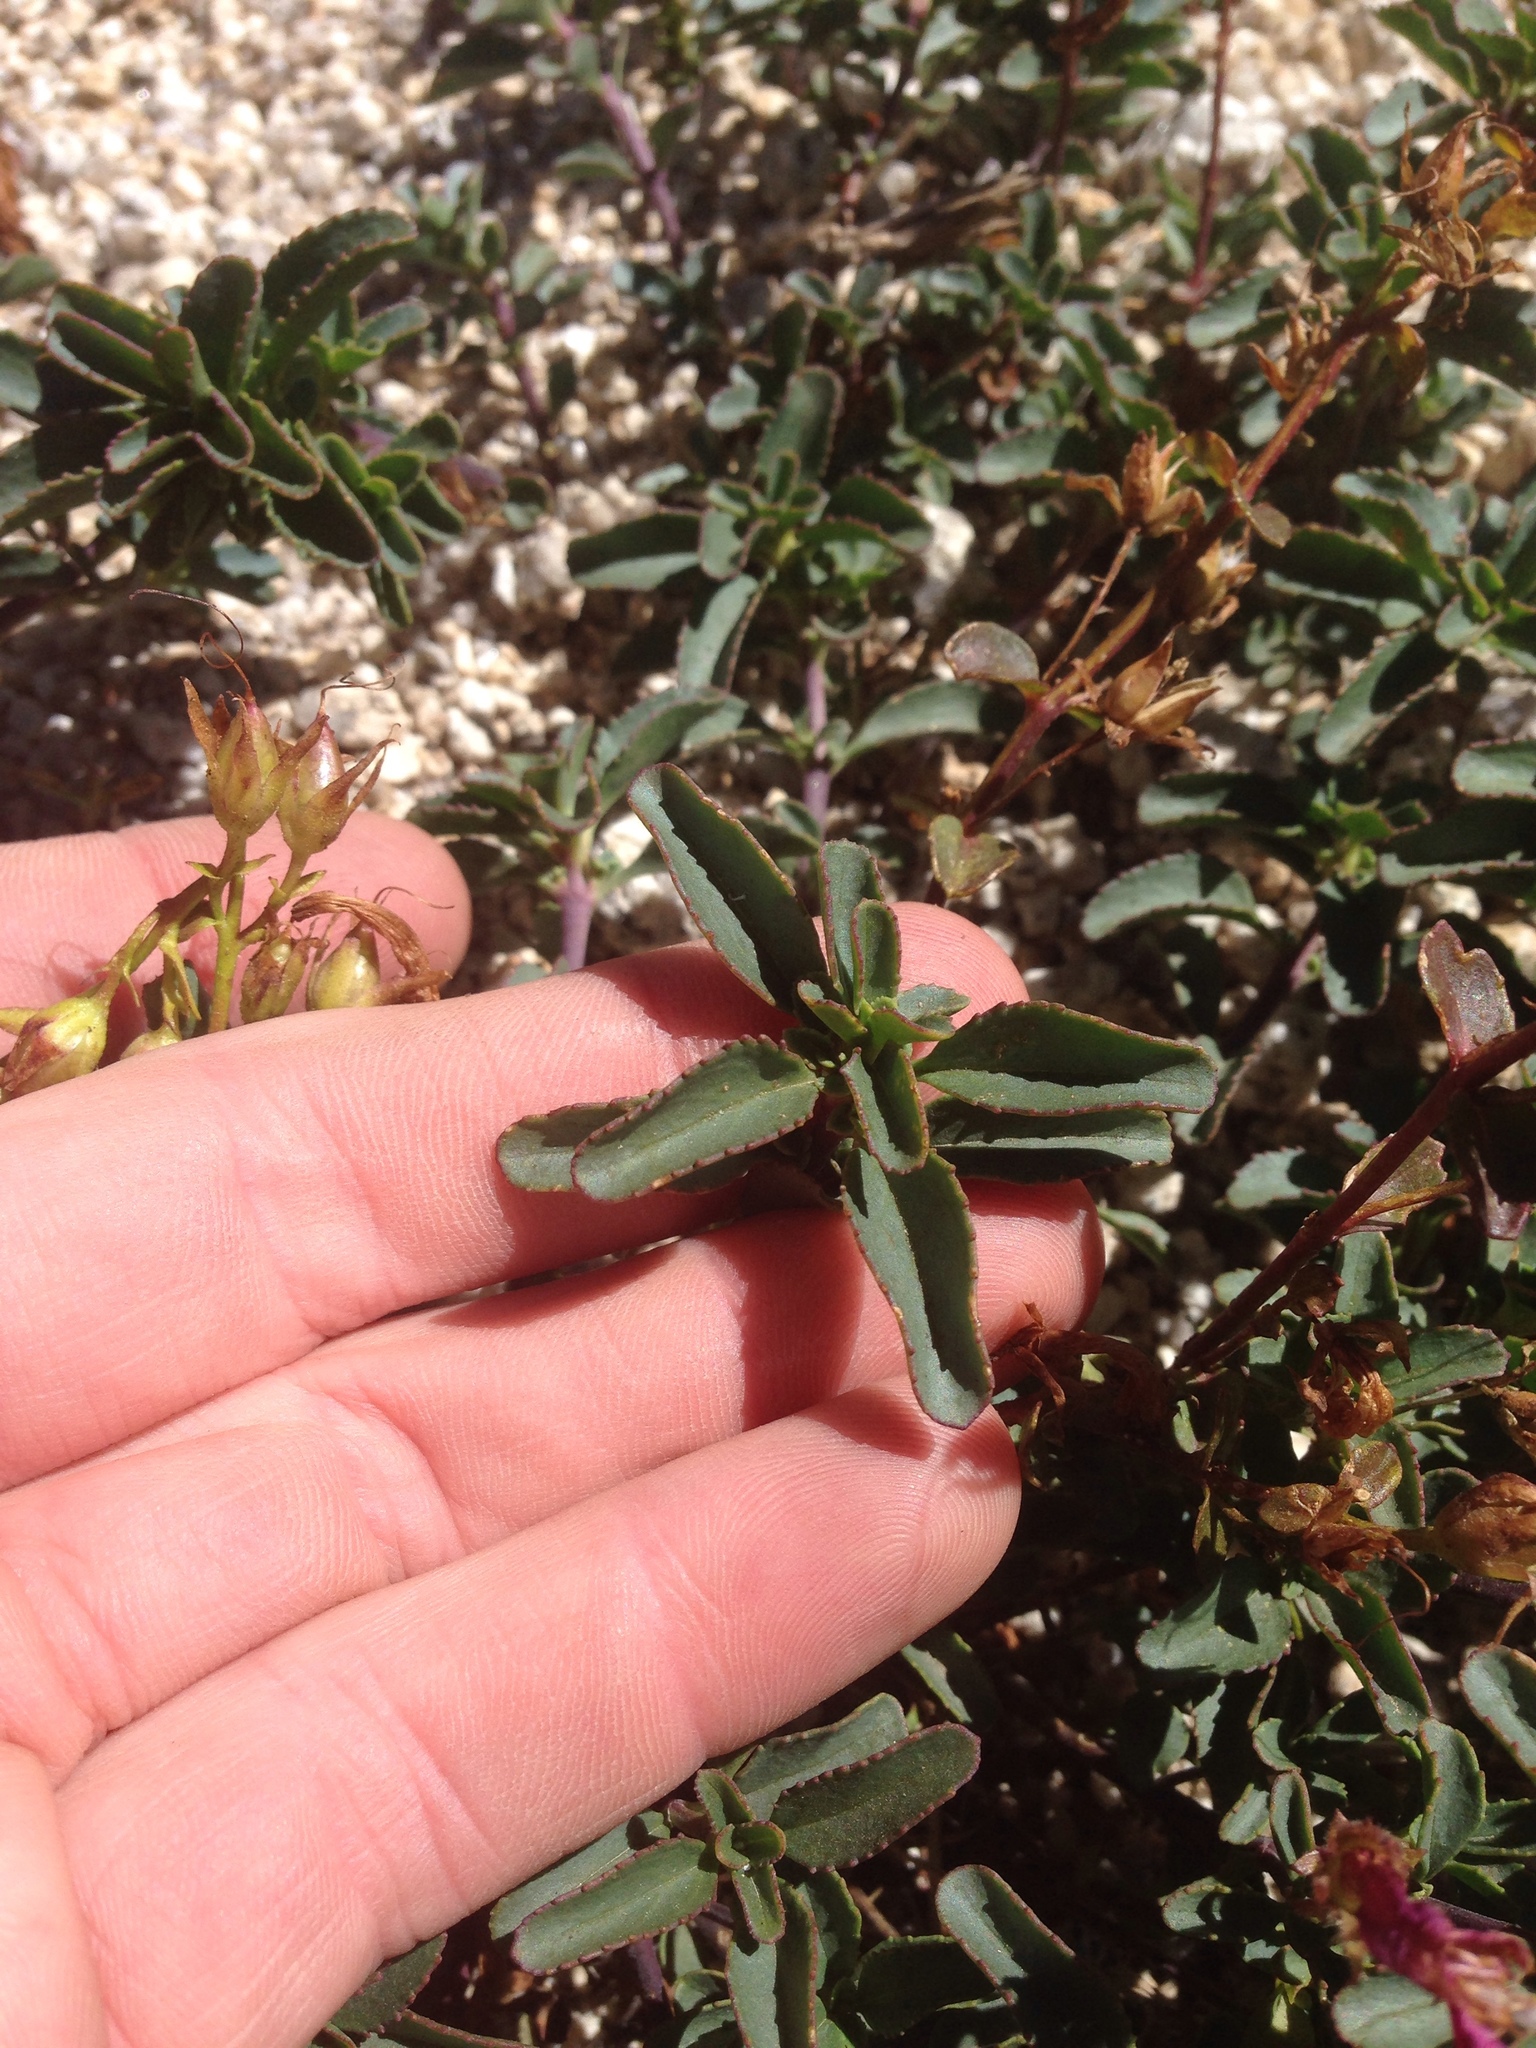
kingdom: Plantae
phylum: Tracheophyta
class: Magnoliopsida
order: Lamiales
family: Plantaginaceae
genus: Penstemon
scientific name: Penstemon newberryi
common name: Mountain-pride
